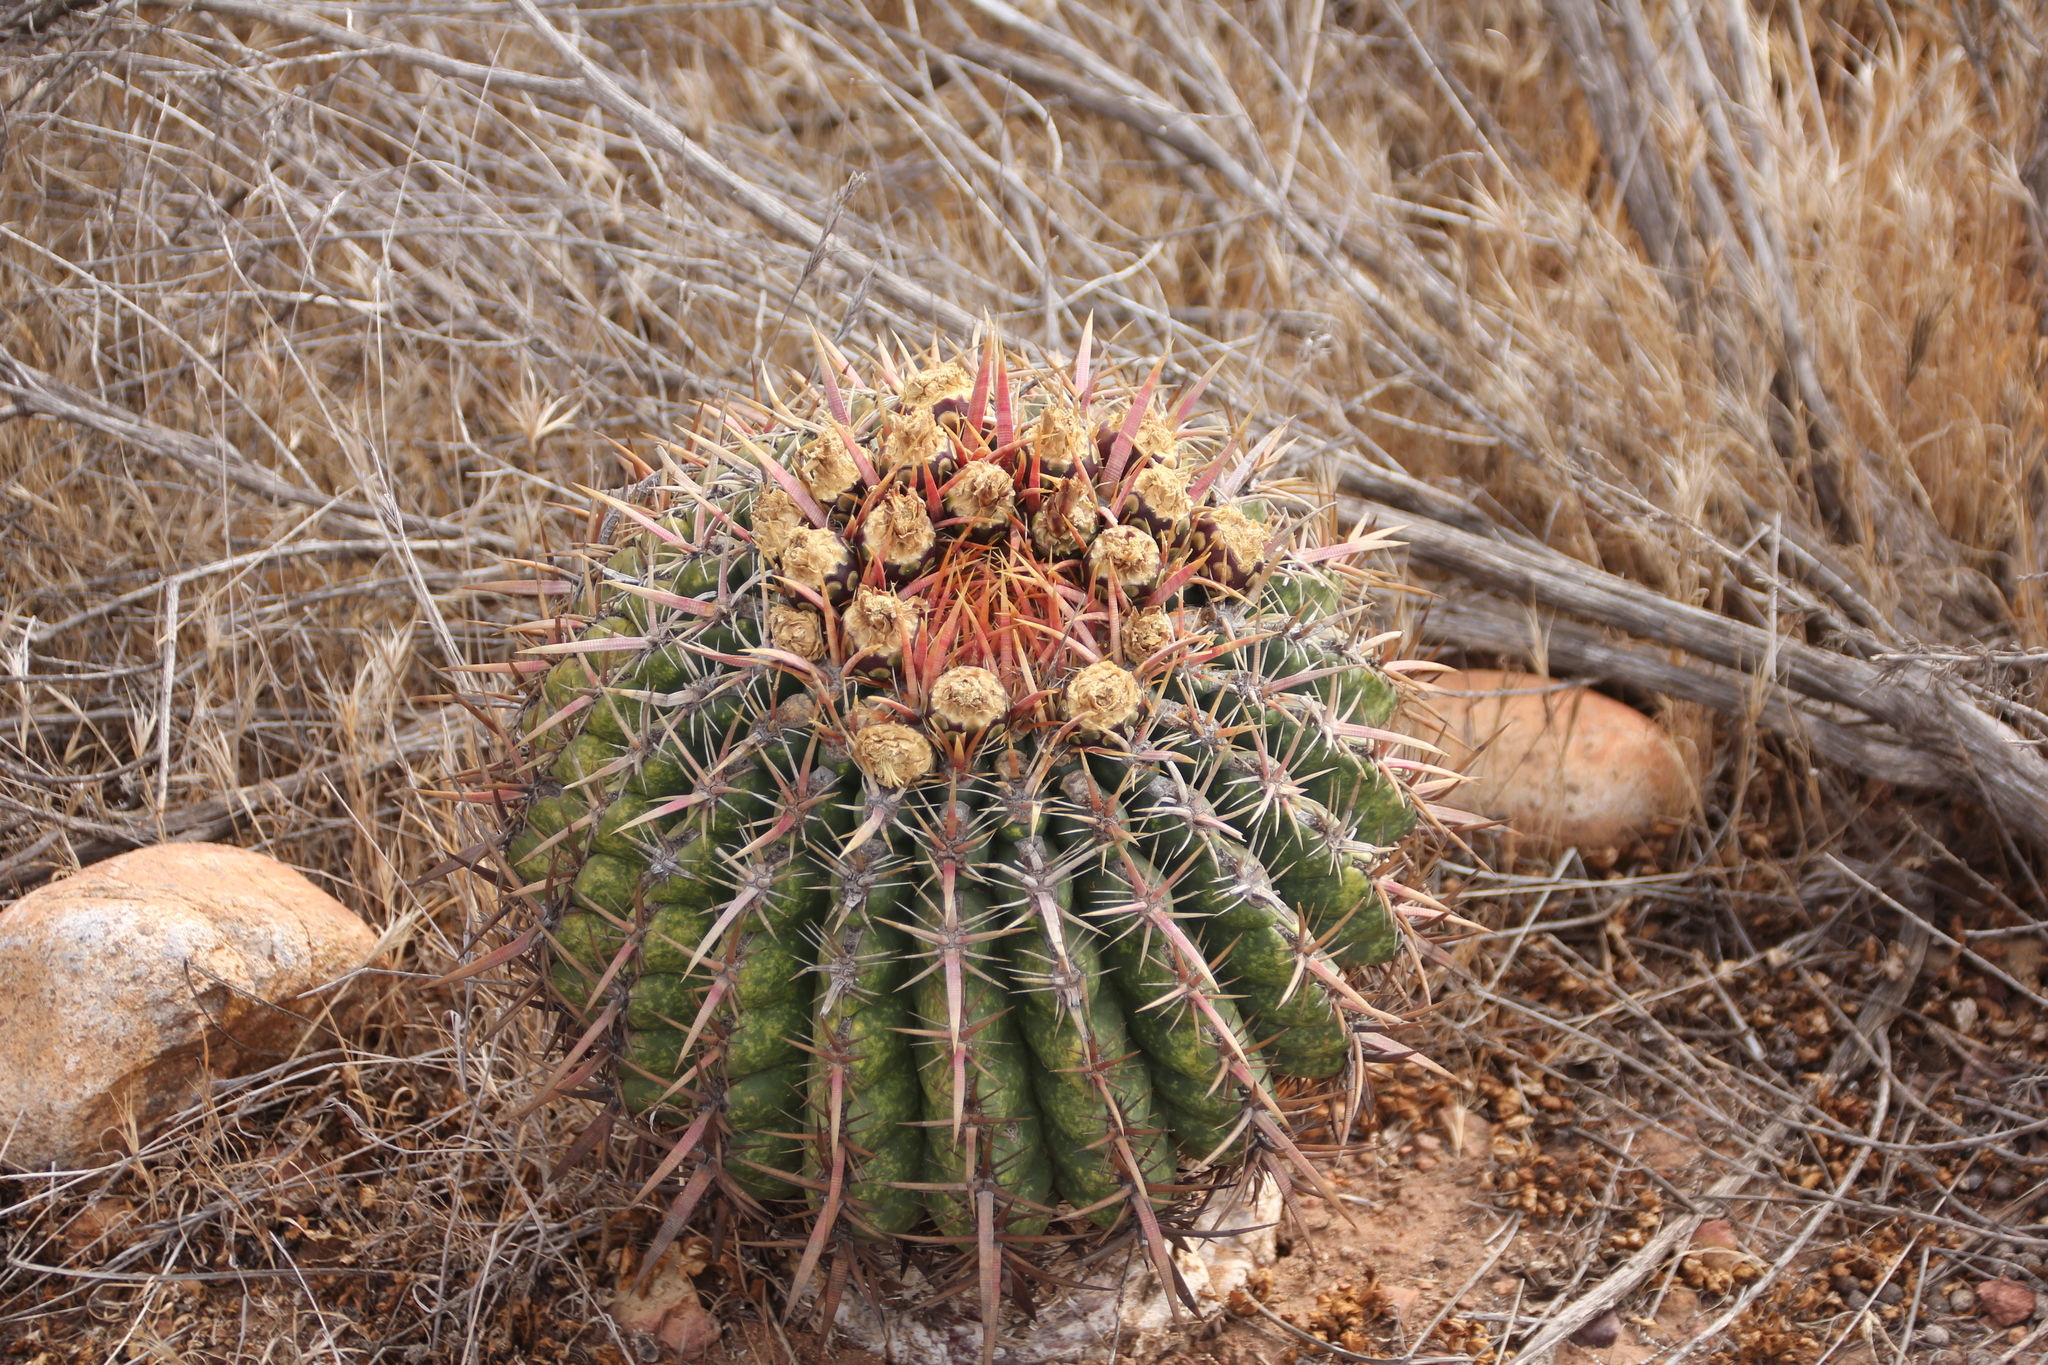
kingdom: Plantae
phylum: Tracheophyta
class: Magnoliopsida
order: Caryophyllales
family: Cactaceae
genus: Ferocactus
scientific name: Ferocactus viridescens
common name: San diego barrel cactus
